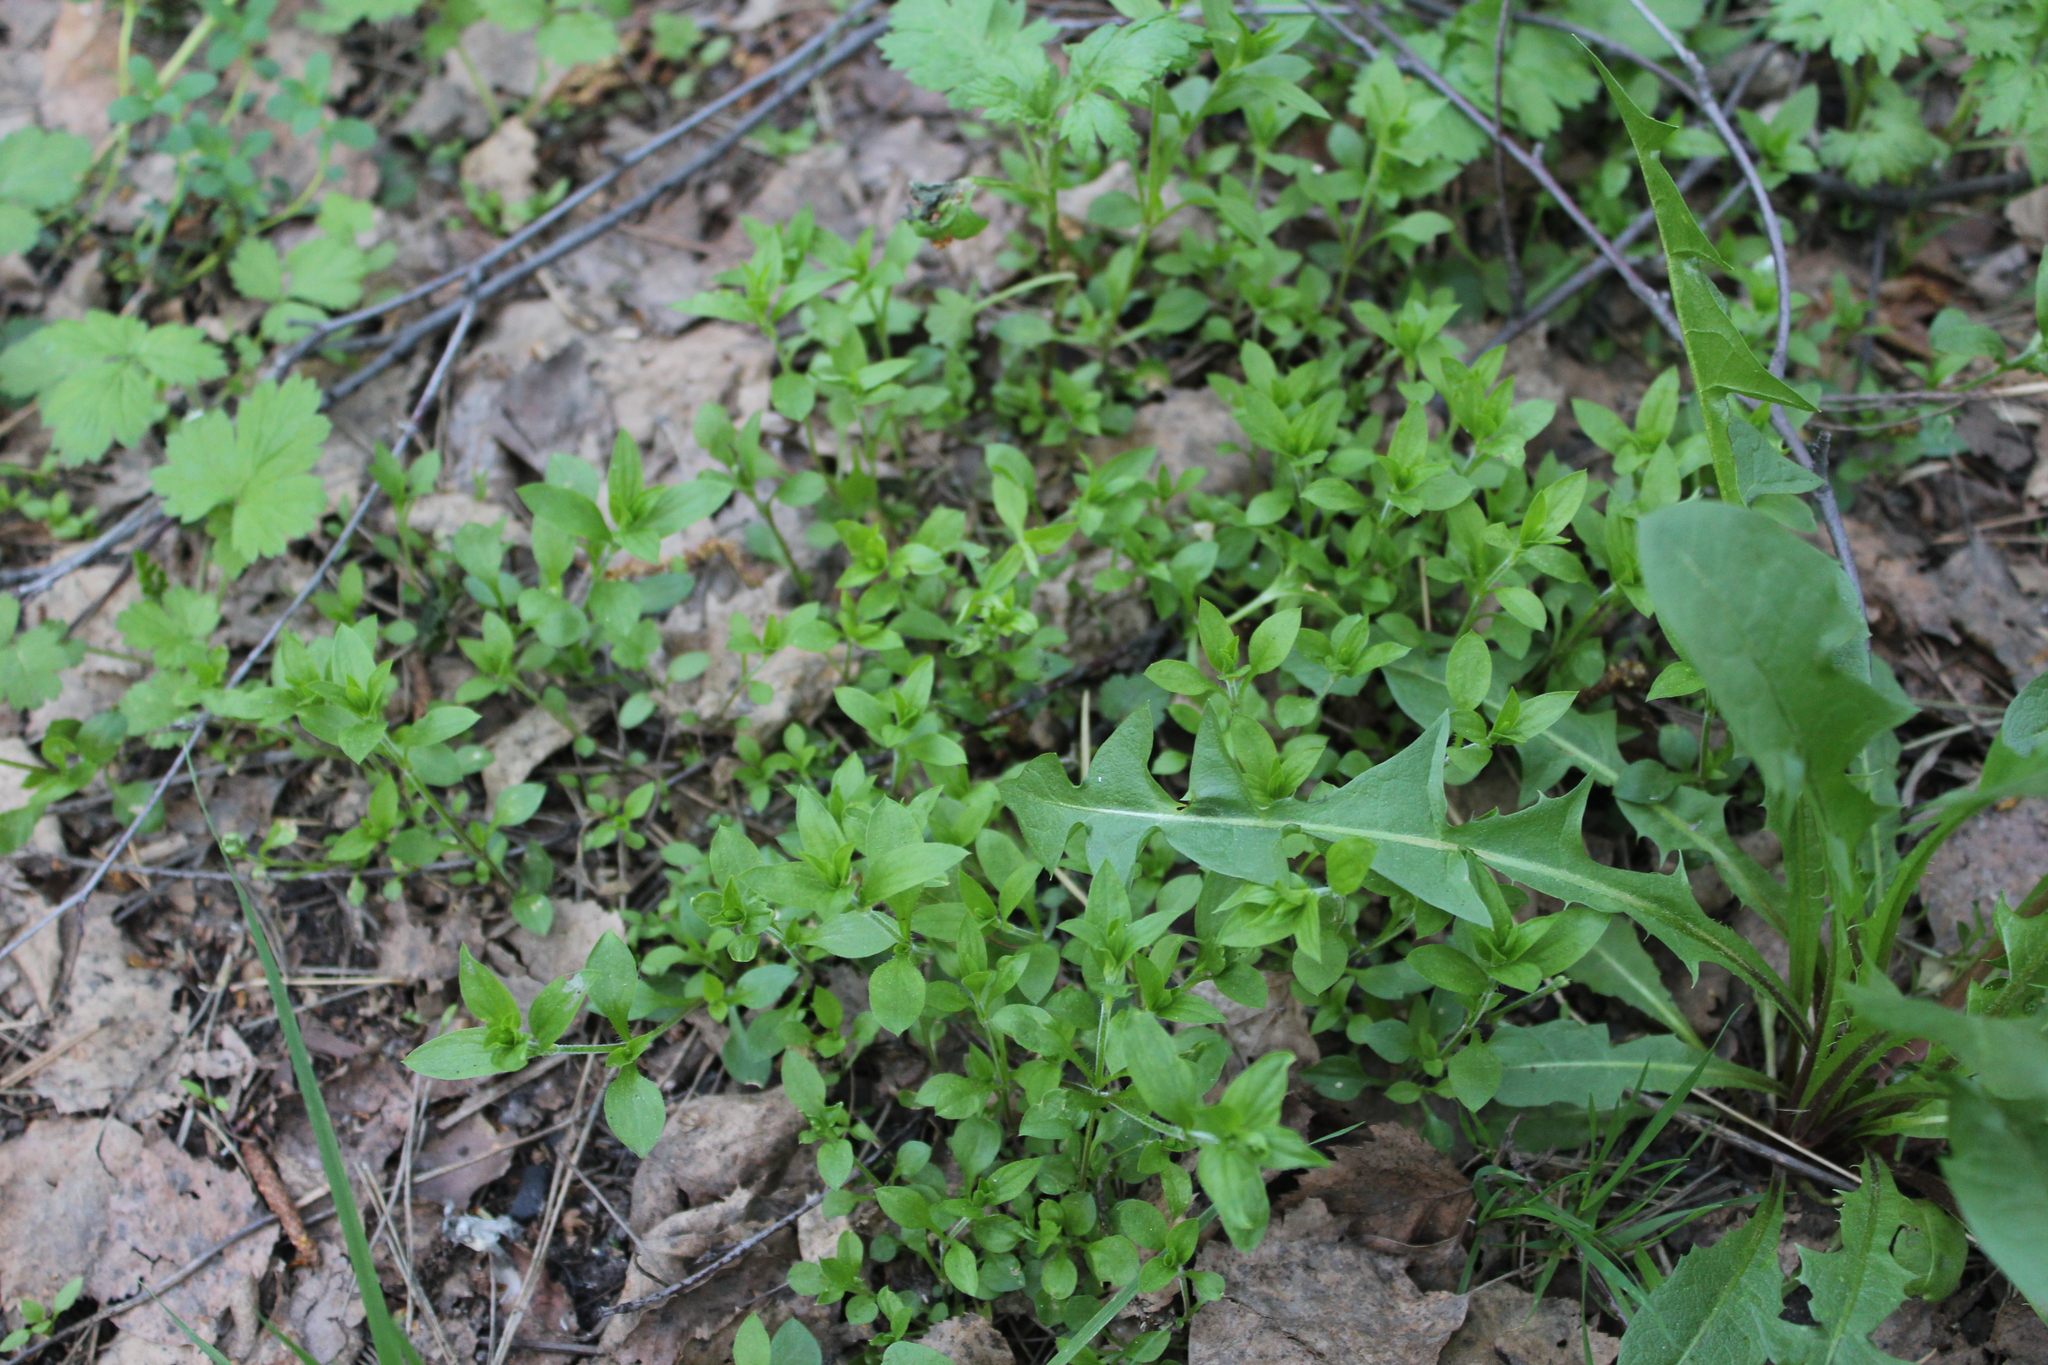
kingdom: Plantae
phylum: Tracheophyta
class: Magnoliopsida
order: Caryophyllales
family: Caryophyllaceae
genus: Moehringia
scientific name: Moehringia trinervia
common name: Three-nerved sandwort
